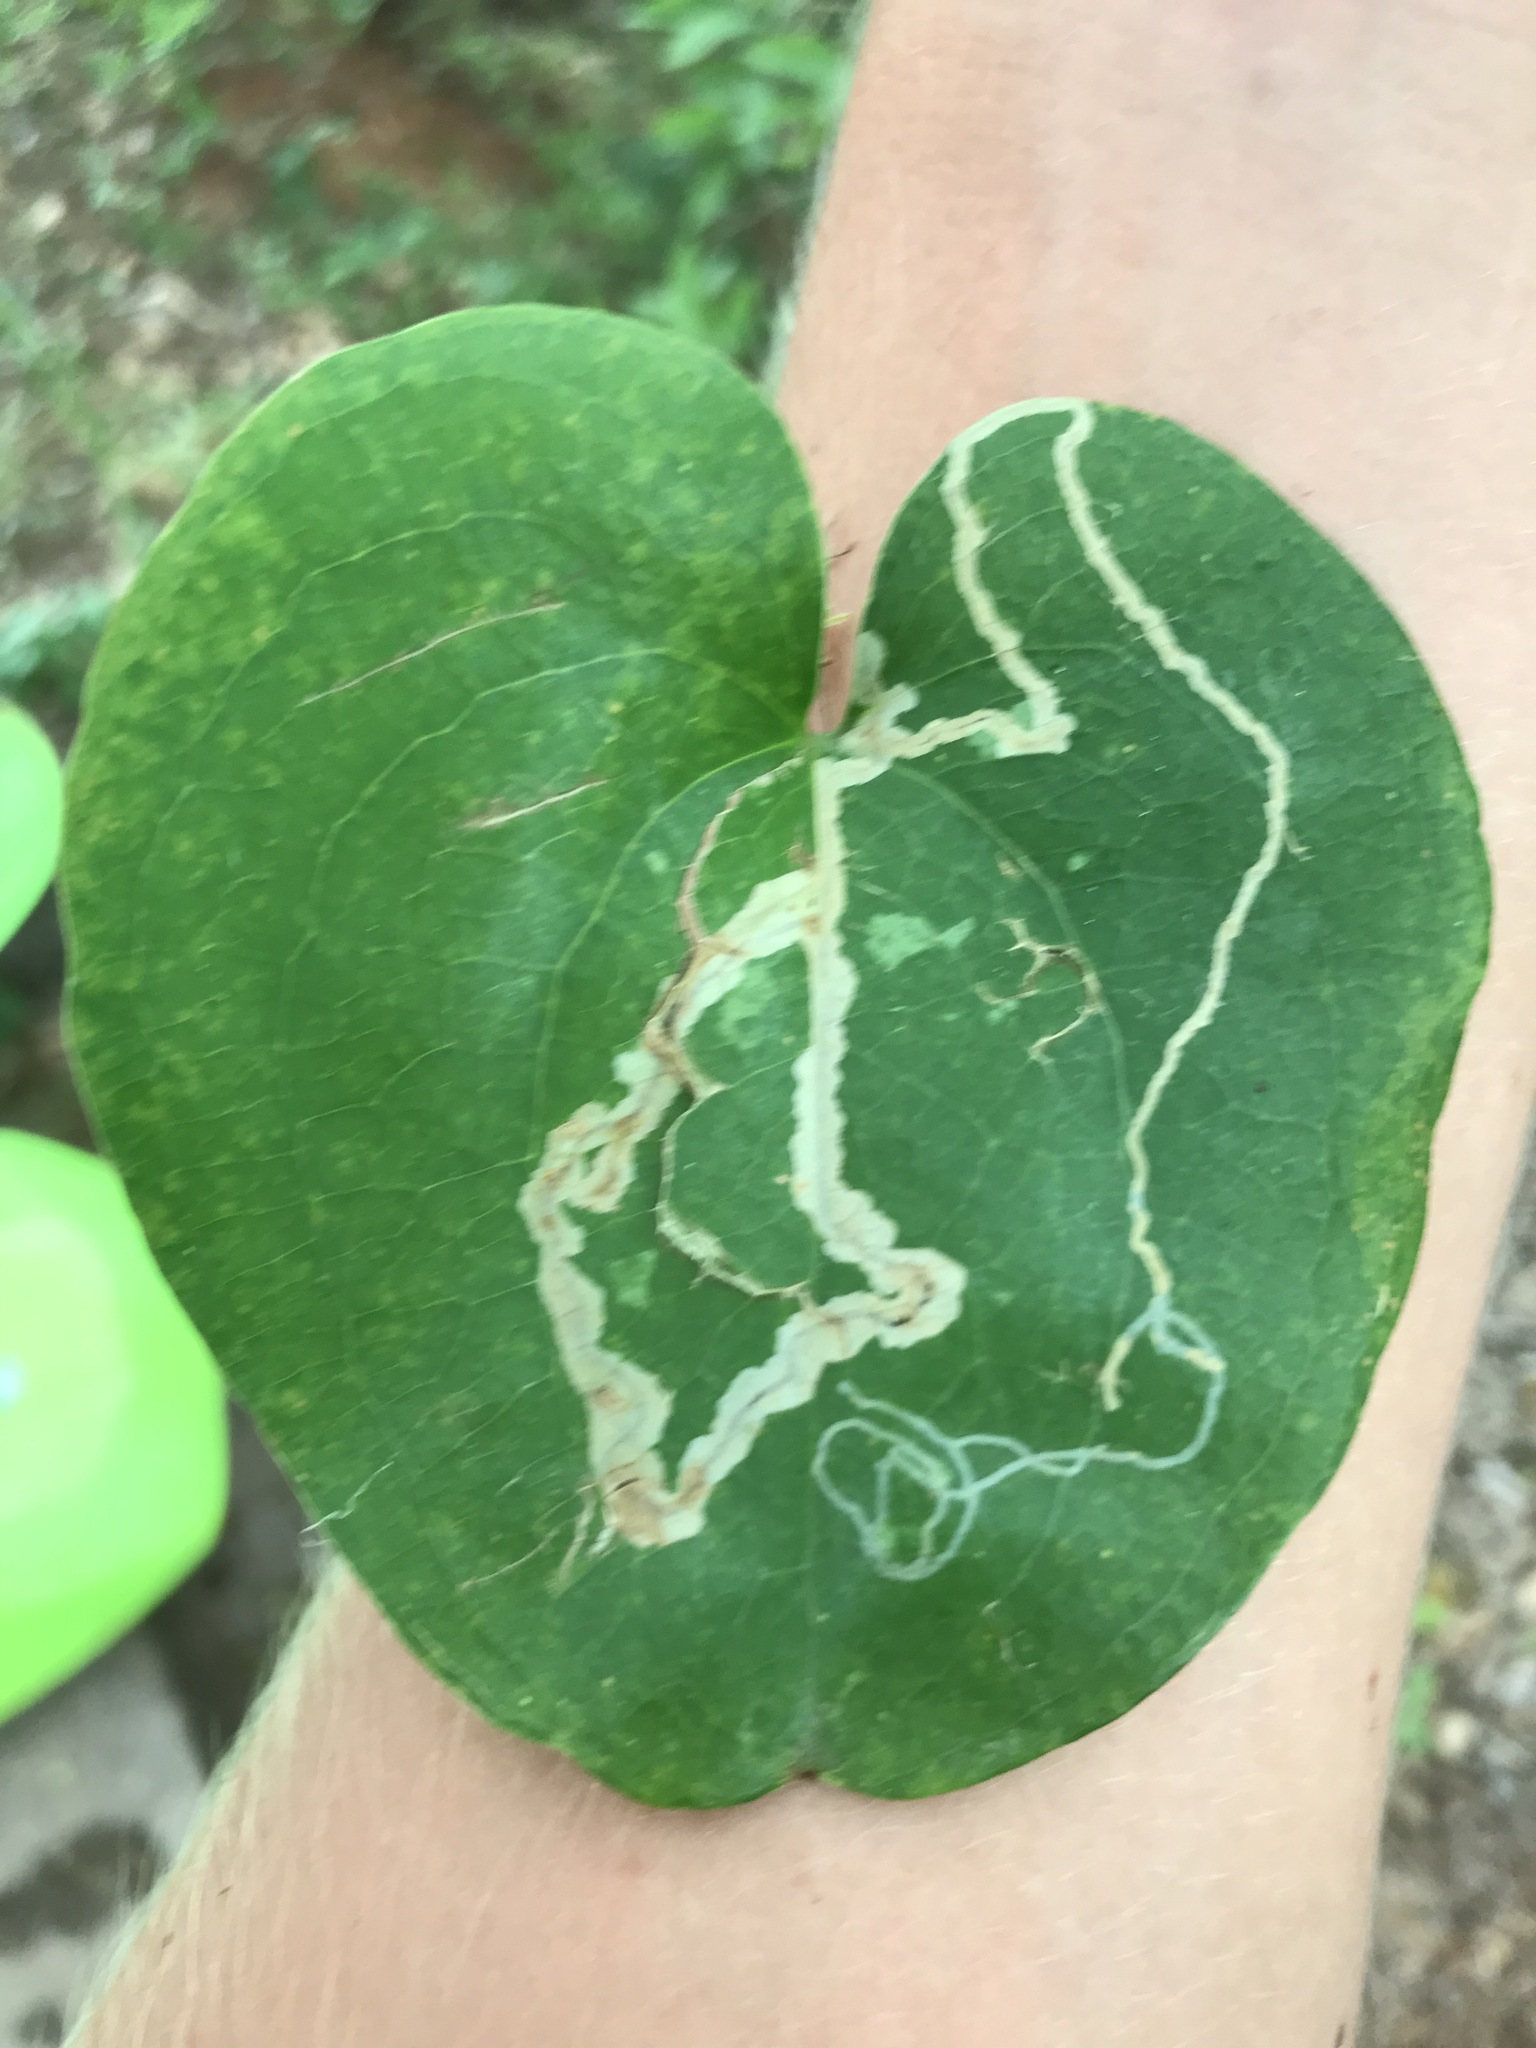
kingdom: Animalia
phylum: Arthropoda
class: Insecta
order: Lepidoptera
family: Gracillariidae
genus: Marmara
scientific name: Marmara smilacisella
